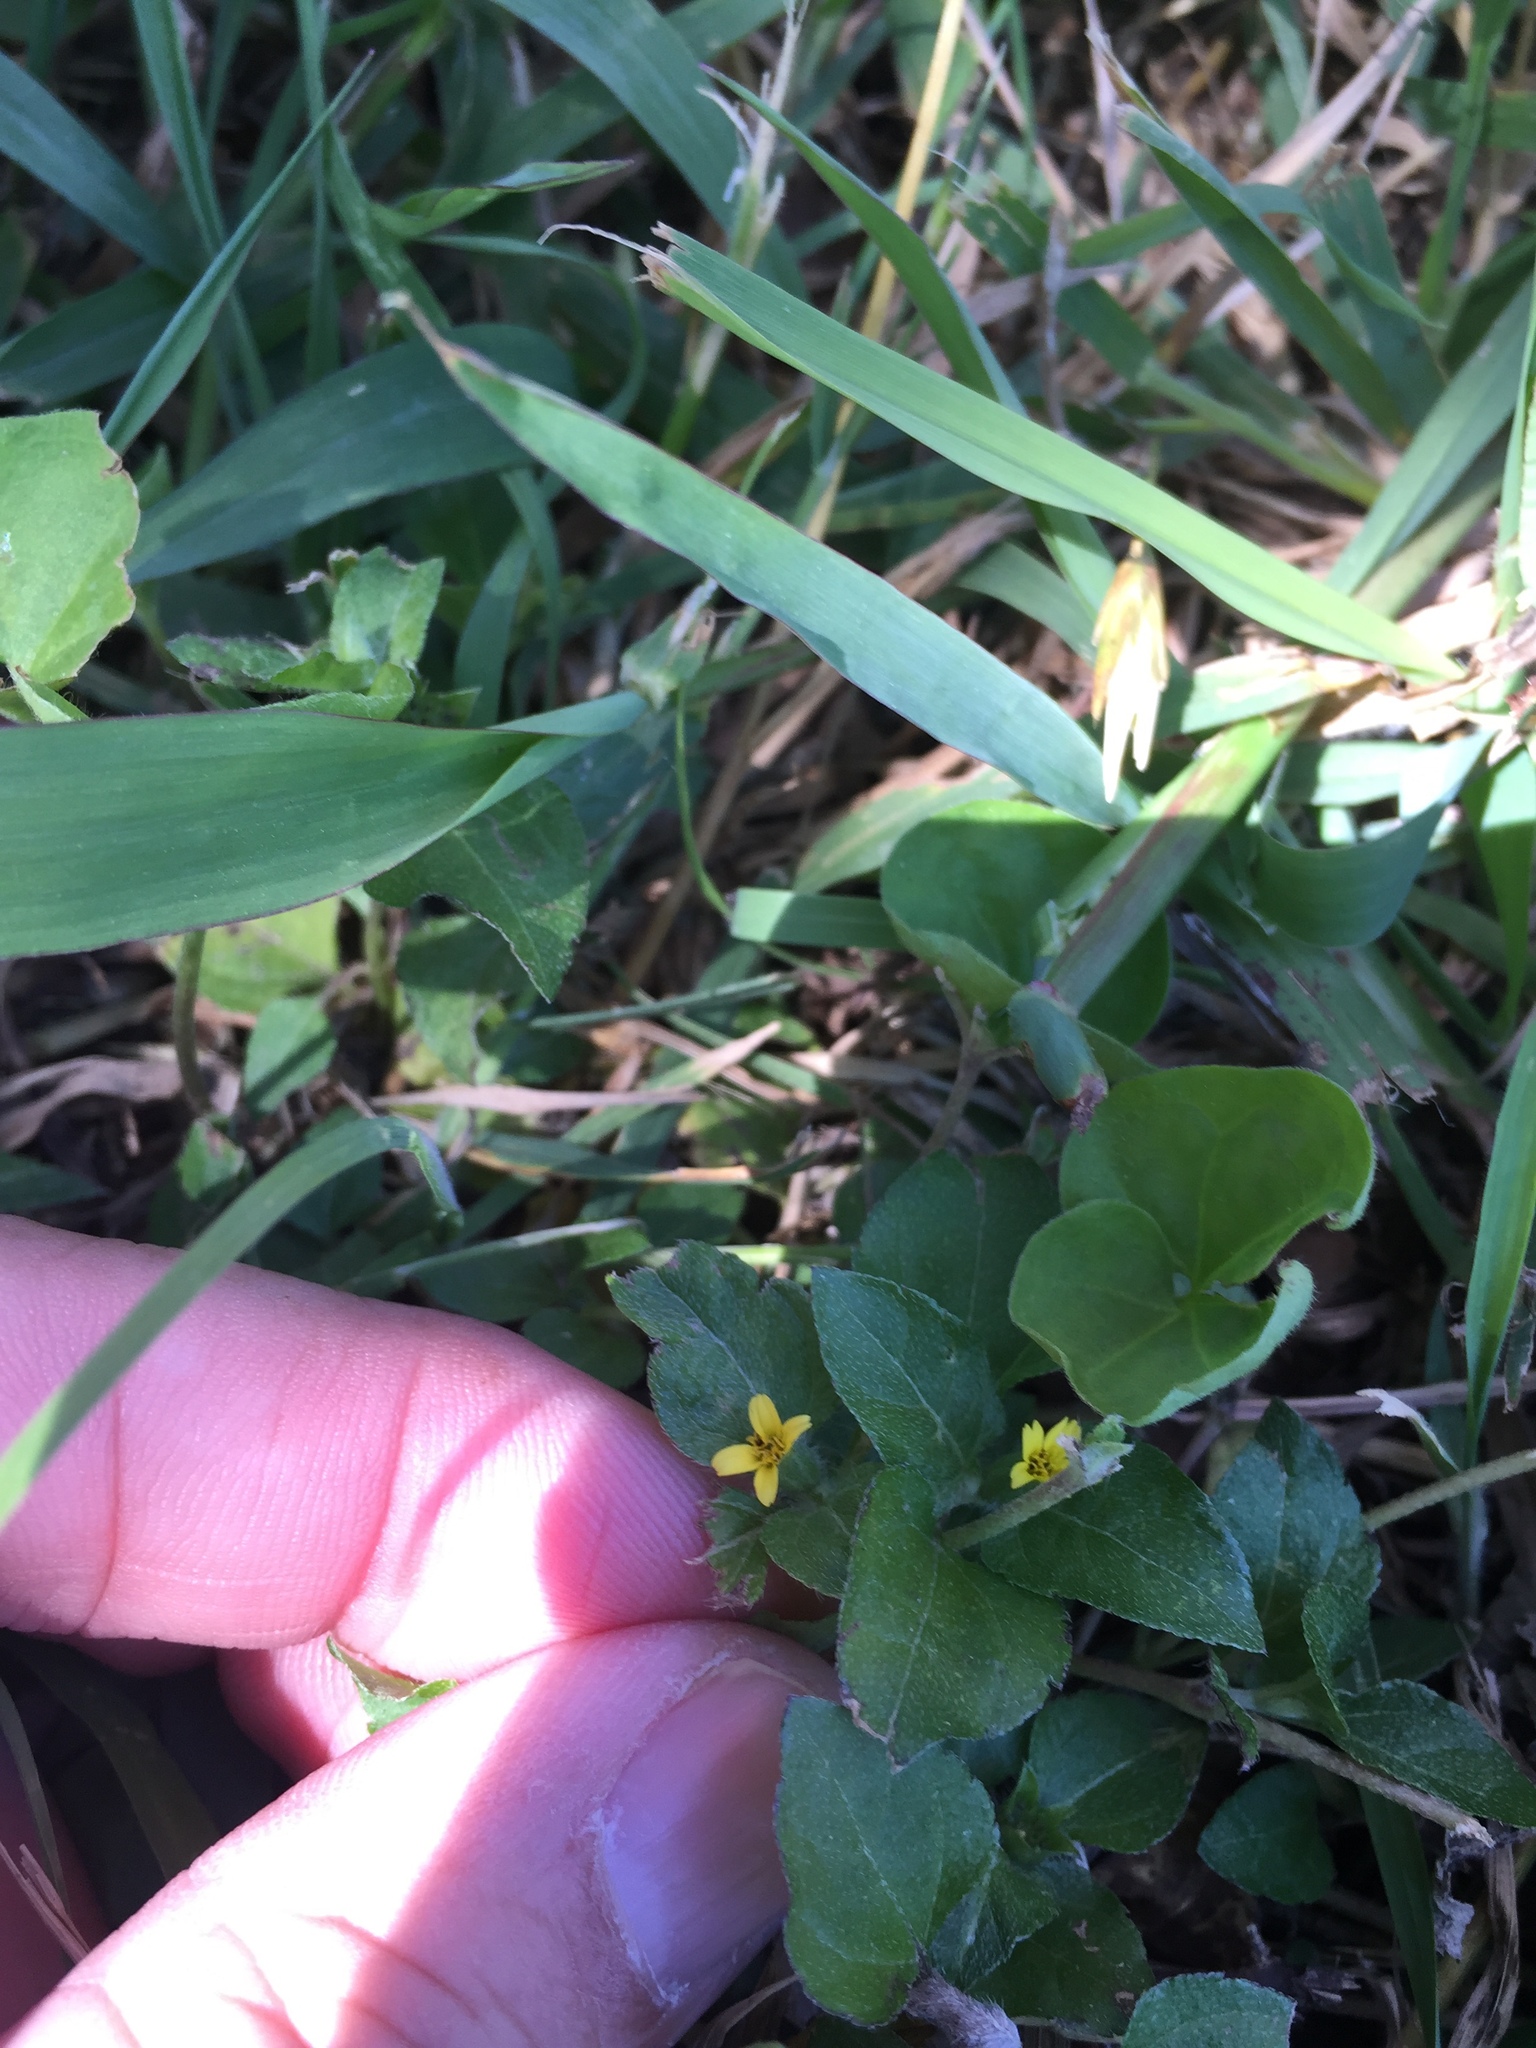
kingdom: Plantae
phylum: Tracheophyta
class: Magnoliopsida
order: Asterales
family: Asteraceae
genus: Calyptocarpus
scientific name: Calyptocarpus vialis
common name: Straggler daisy
